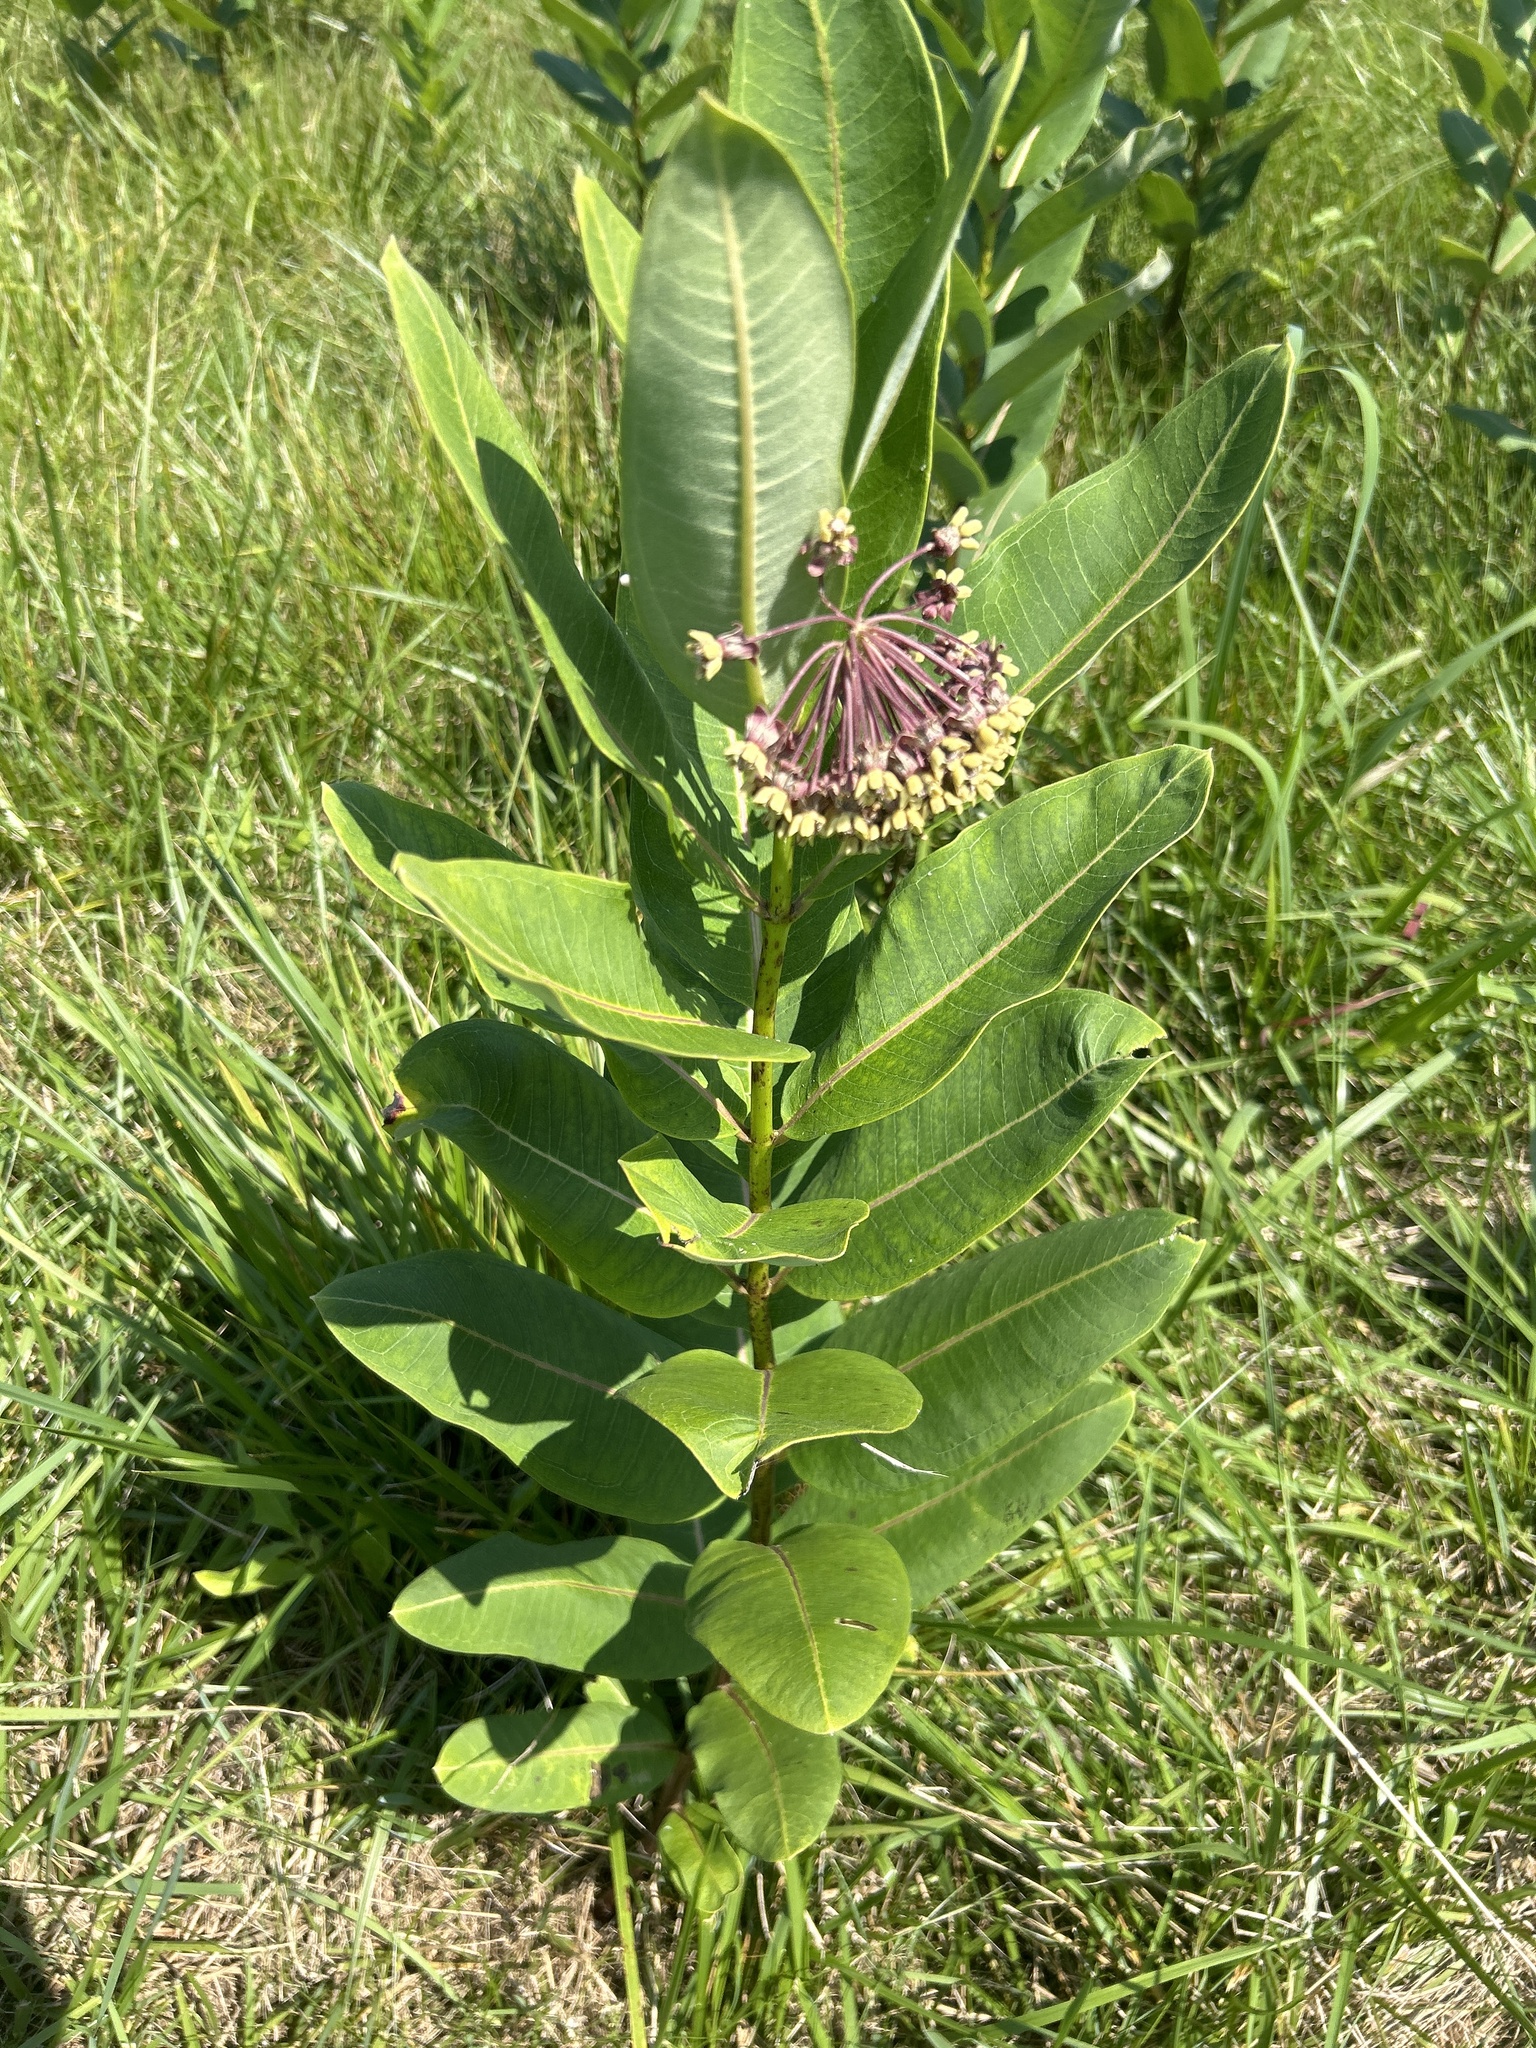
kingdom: Plantae
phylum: Tracheophyta
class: Magnoliopsida
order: Gentianales
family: Apocynaceae
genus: Asclepias
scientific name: Asclepias syriaca
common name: Common milkweed
